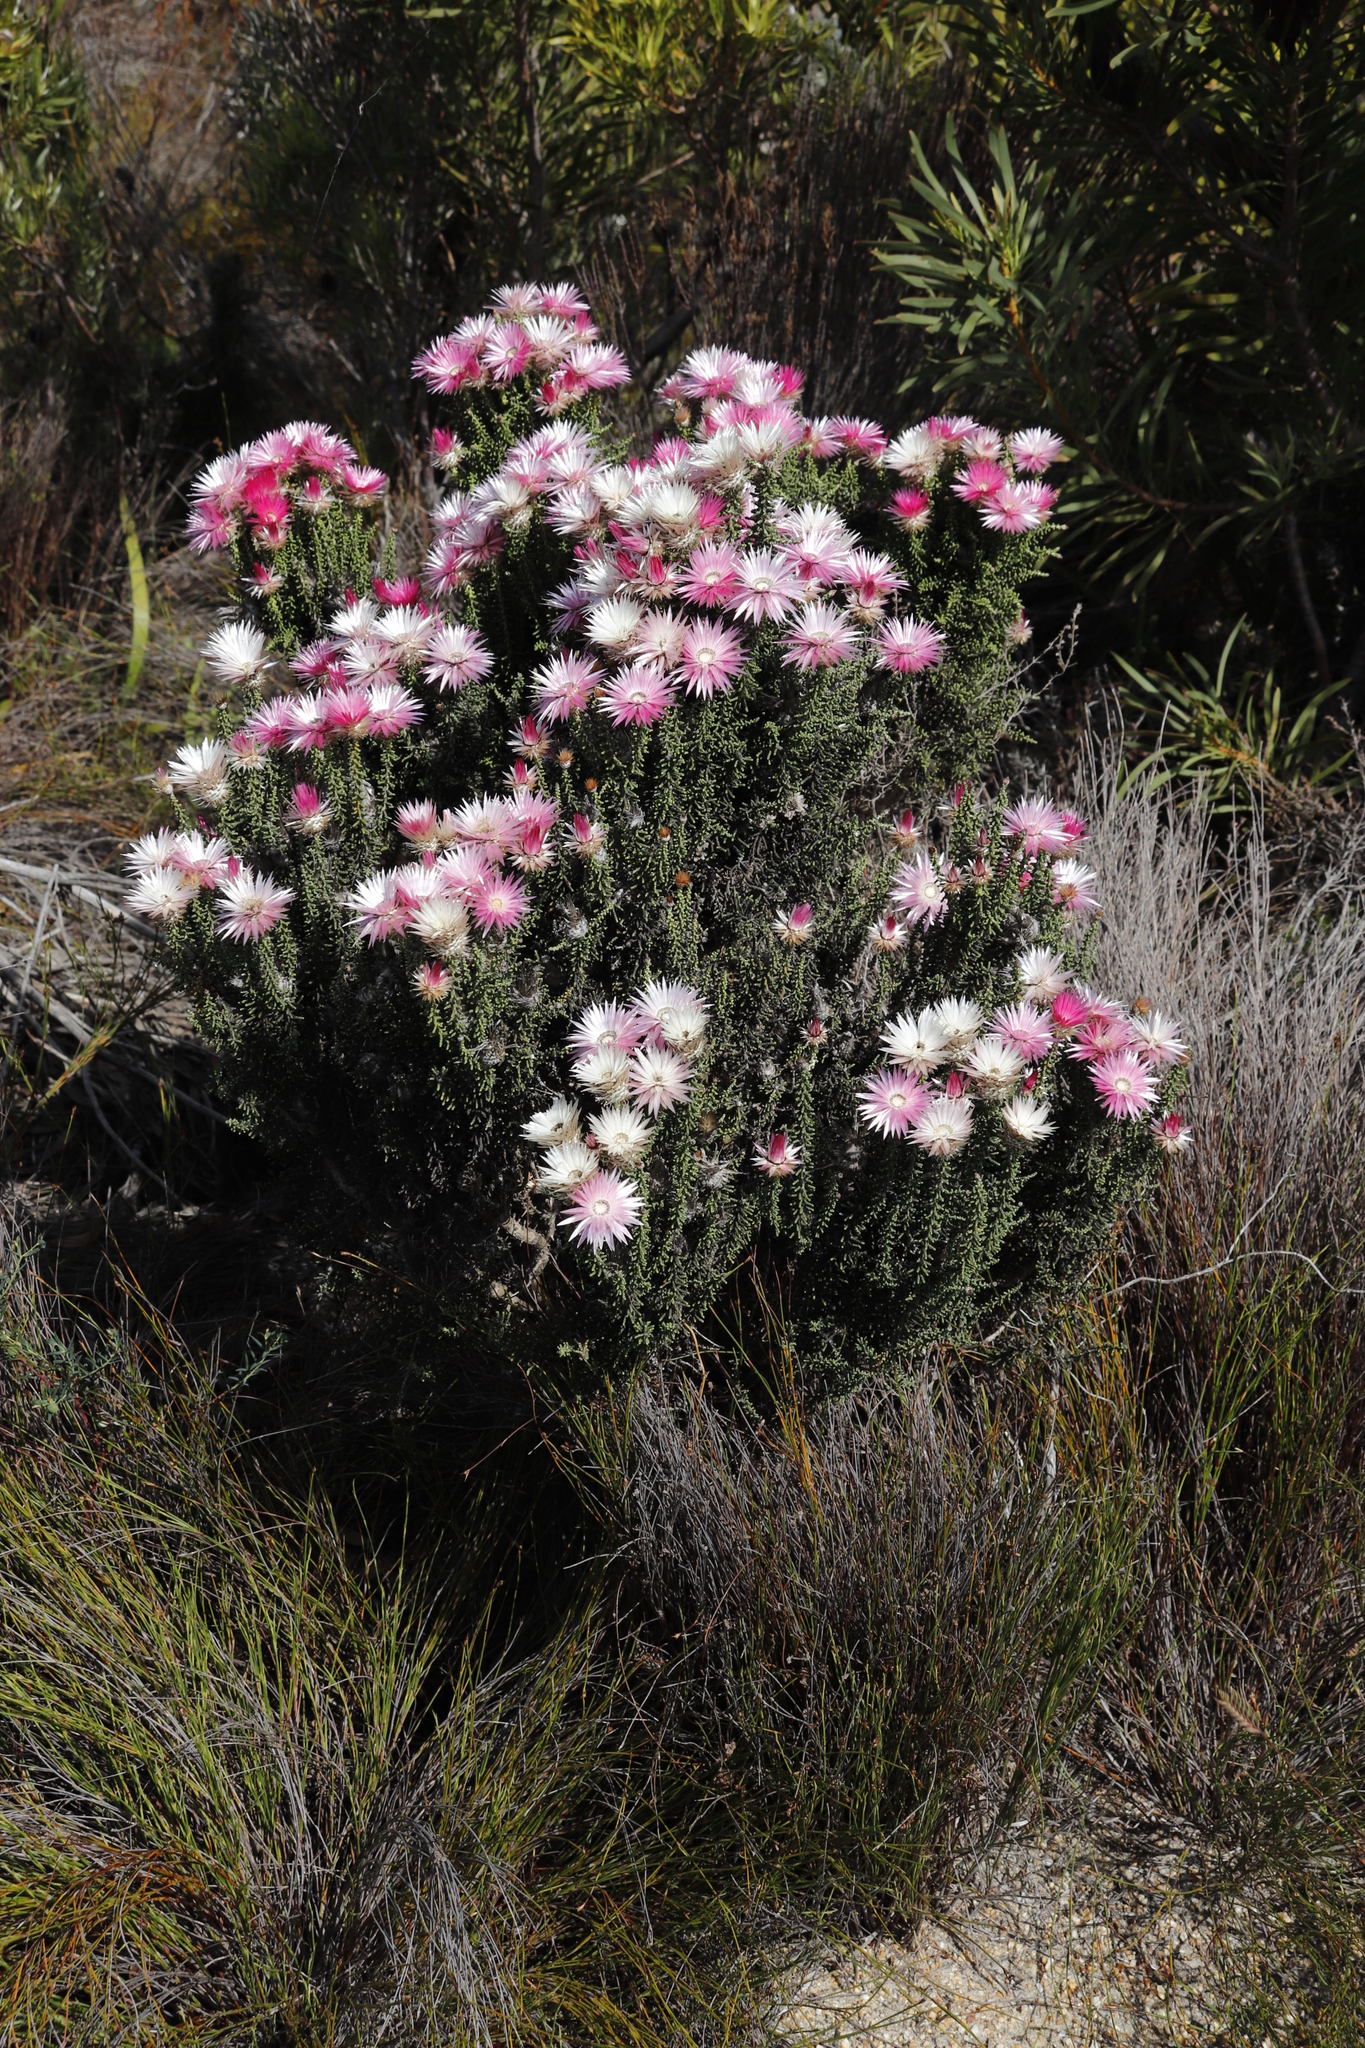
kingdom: Plantae
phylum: Tracheophyta
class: Magnoliopsida
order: Asterales
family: Asteraceae
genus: Phaenocoma
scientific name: Phaenocoma prolifera
